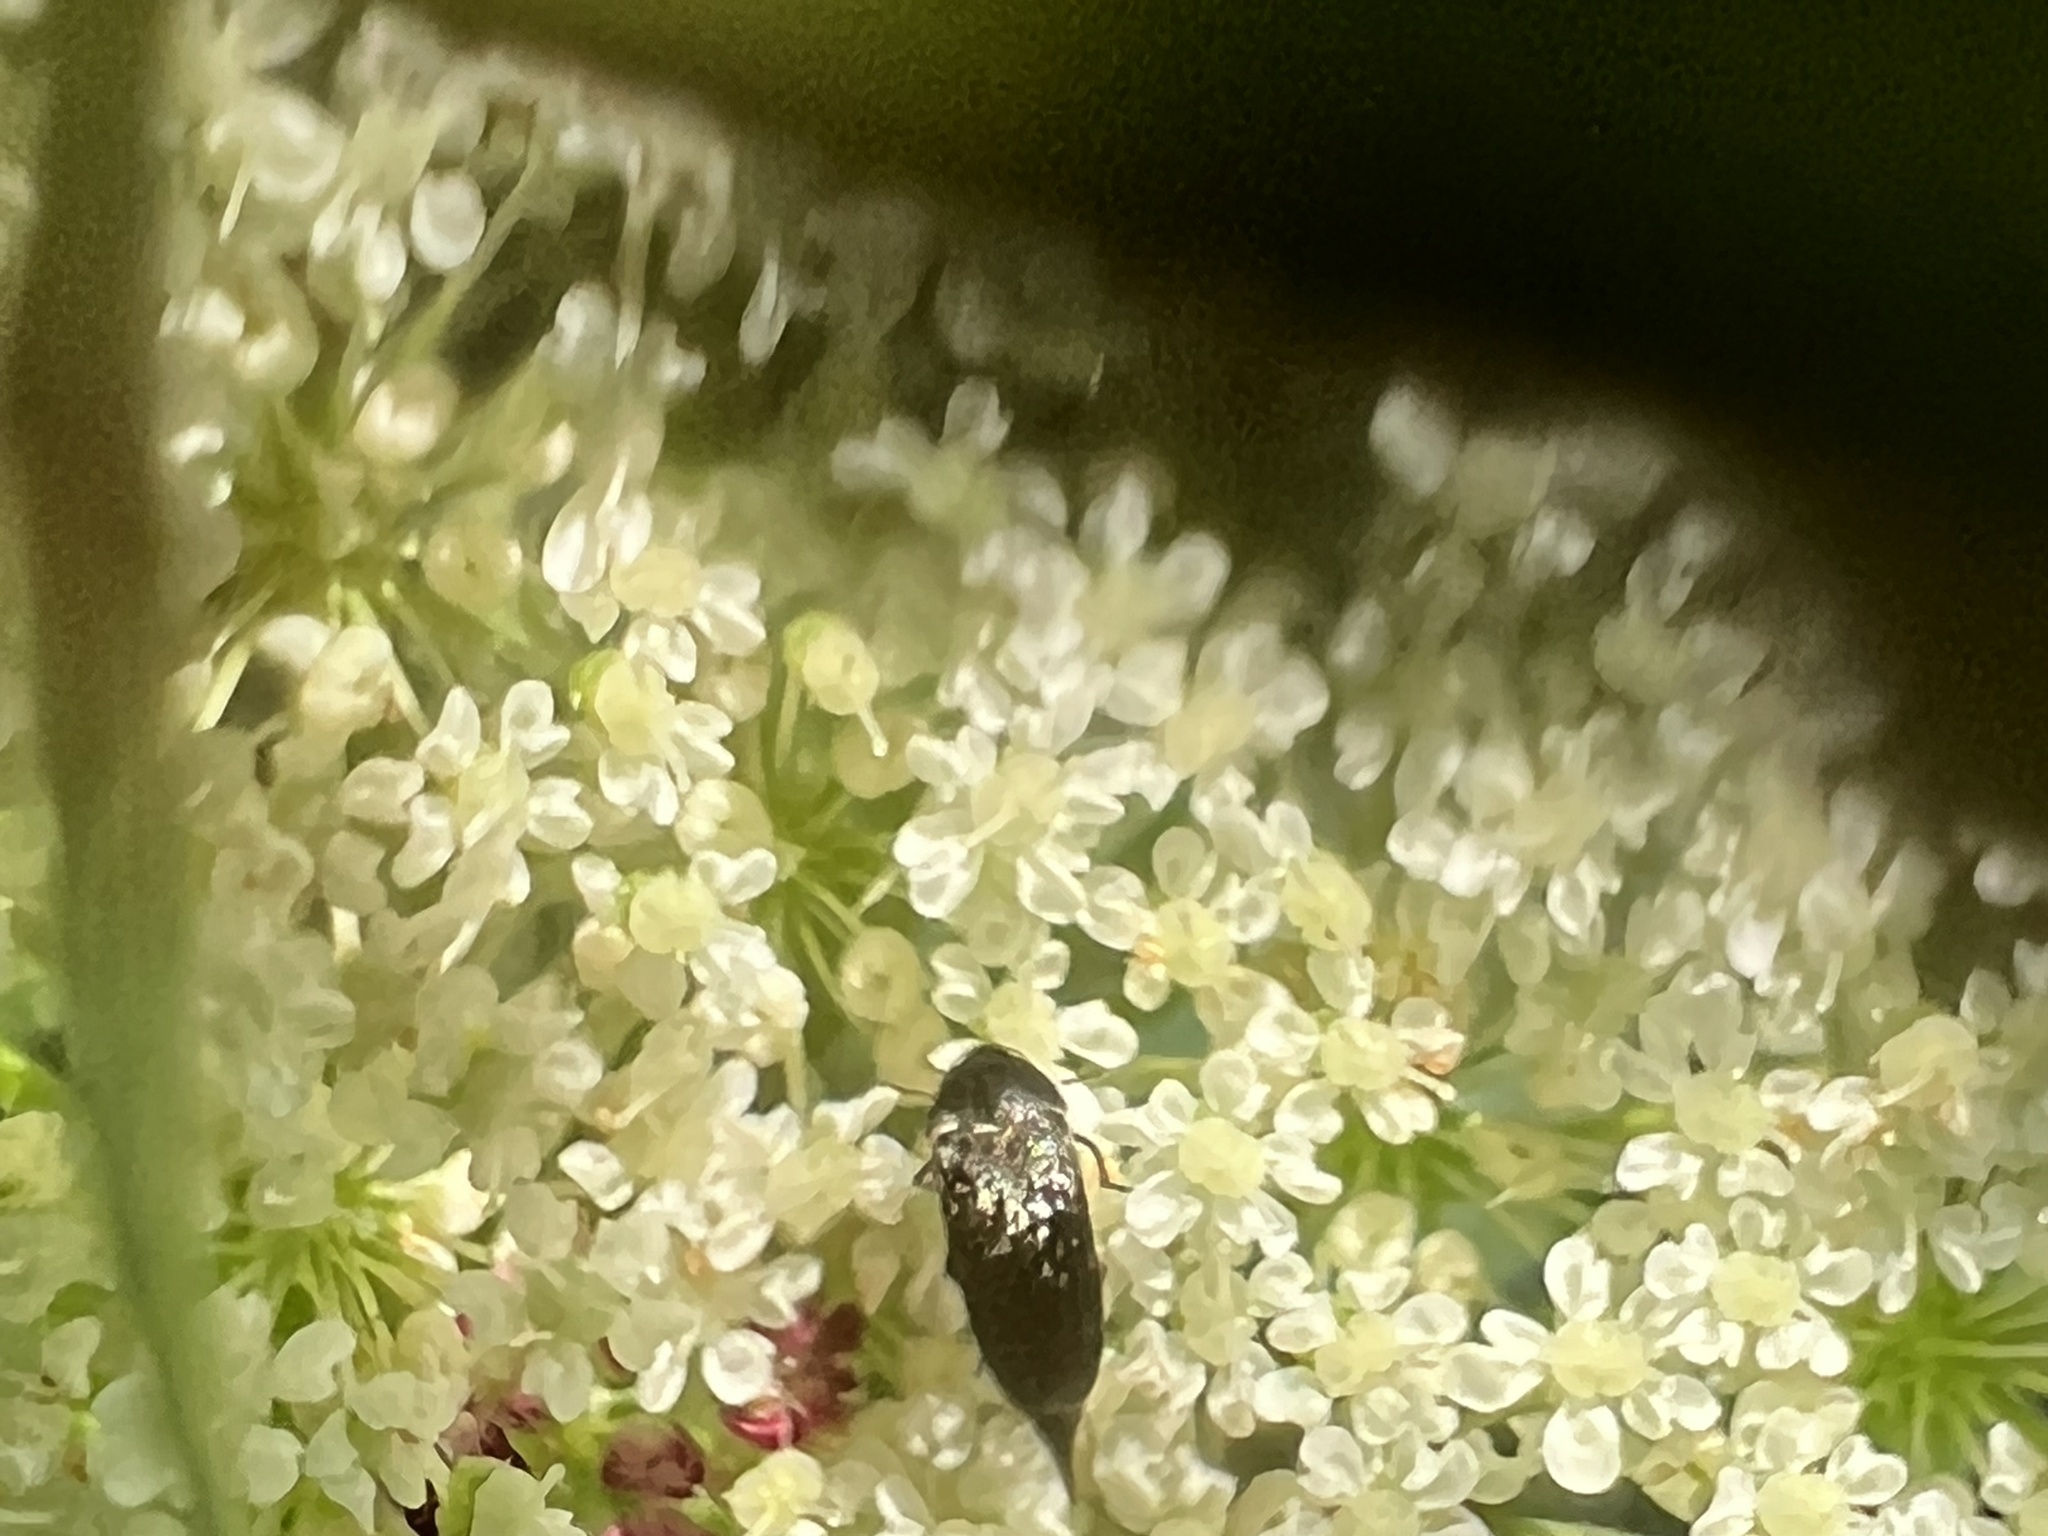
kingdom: Animalia
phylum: Arthropoda
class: Insecta
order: Coleoptera
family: Mordellidae
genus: Mordella
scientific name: Mordella marginata
